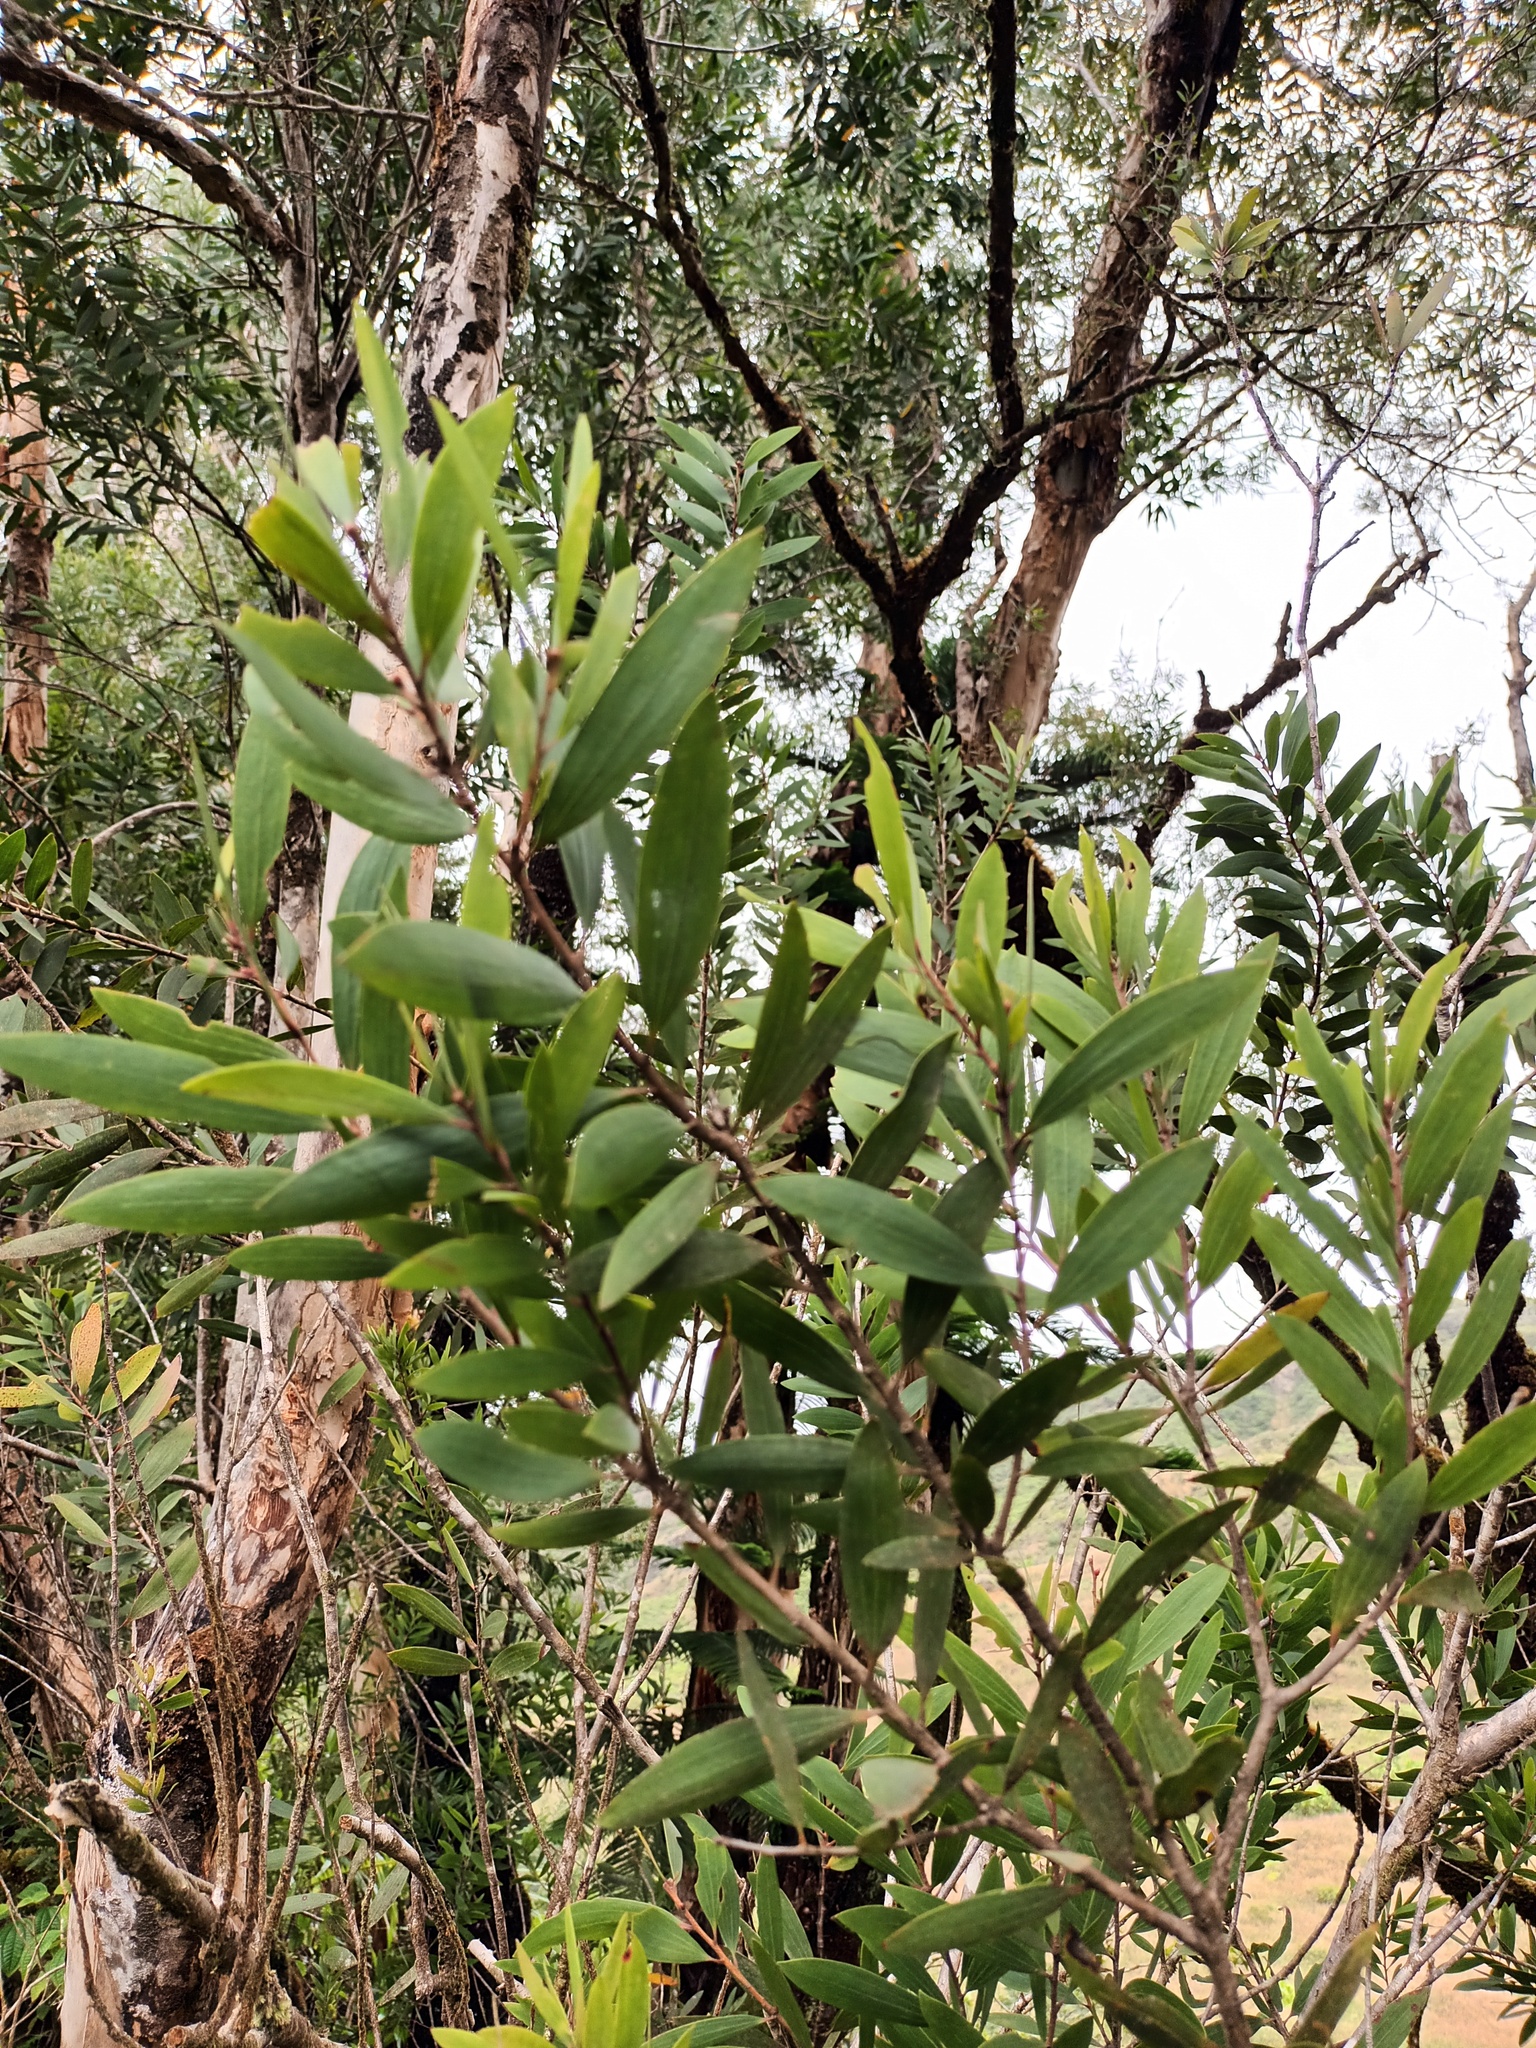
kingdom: Plantae
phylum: Tracheophyta
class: Magnoliopsida
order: Myrtales
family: Myrtaceae
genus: Melaleuca
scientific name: Melaleuca quinquenervia
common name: Punktree
